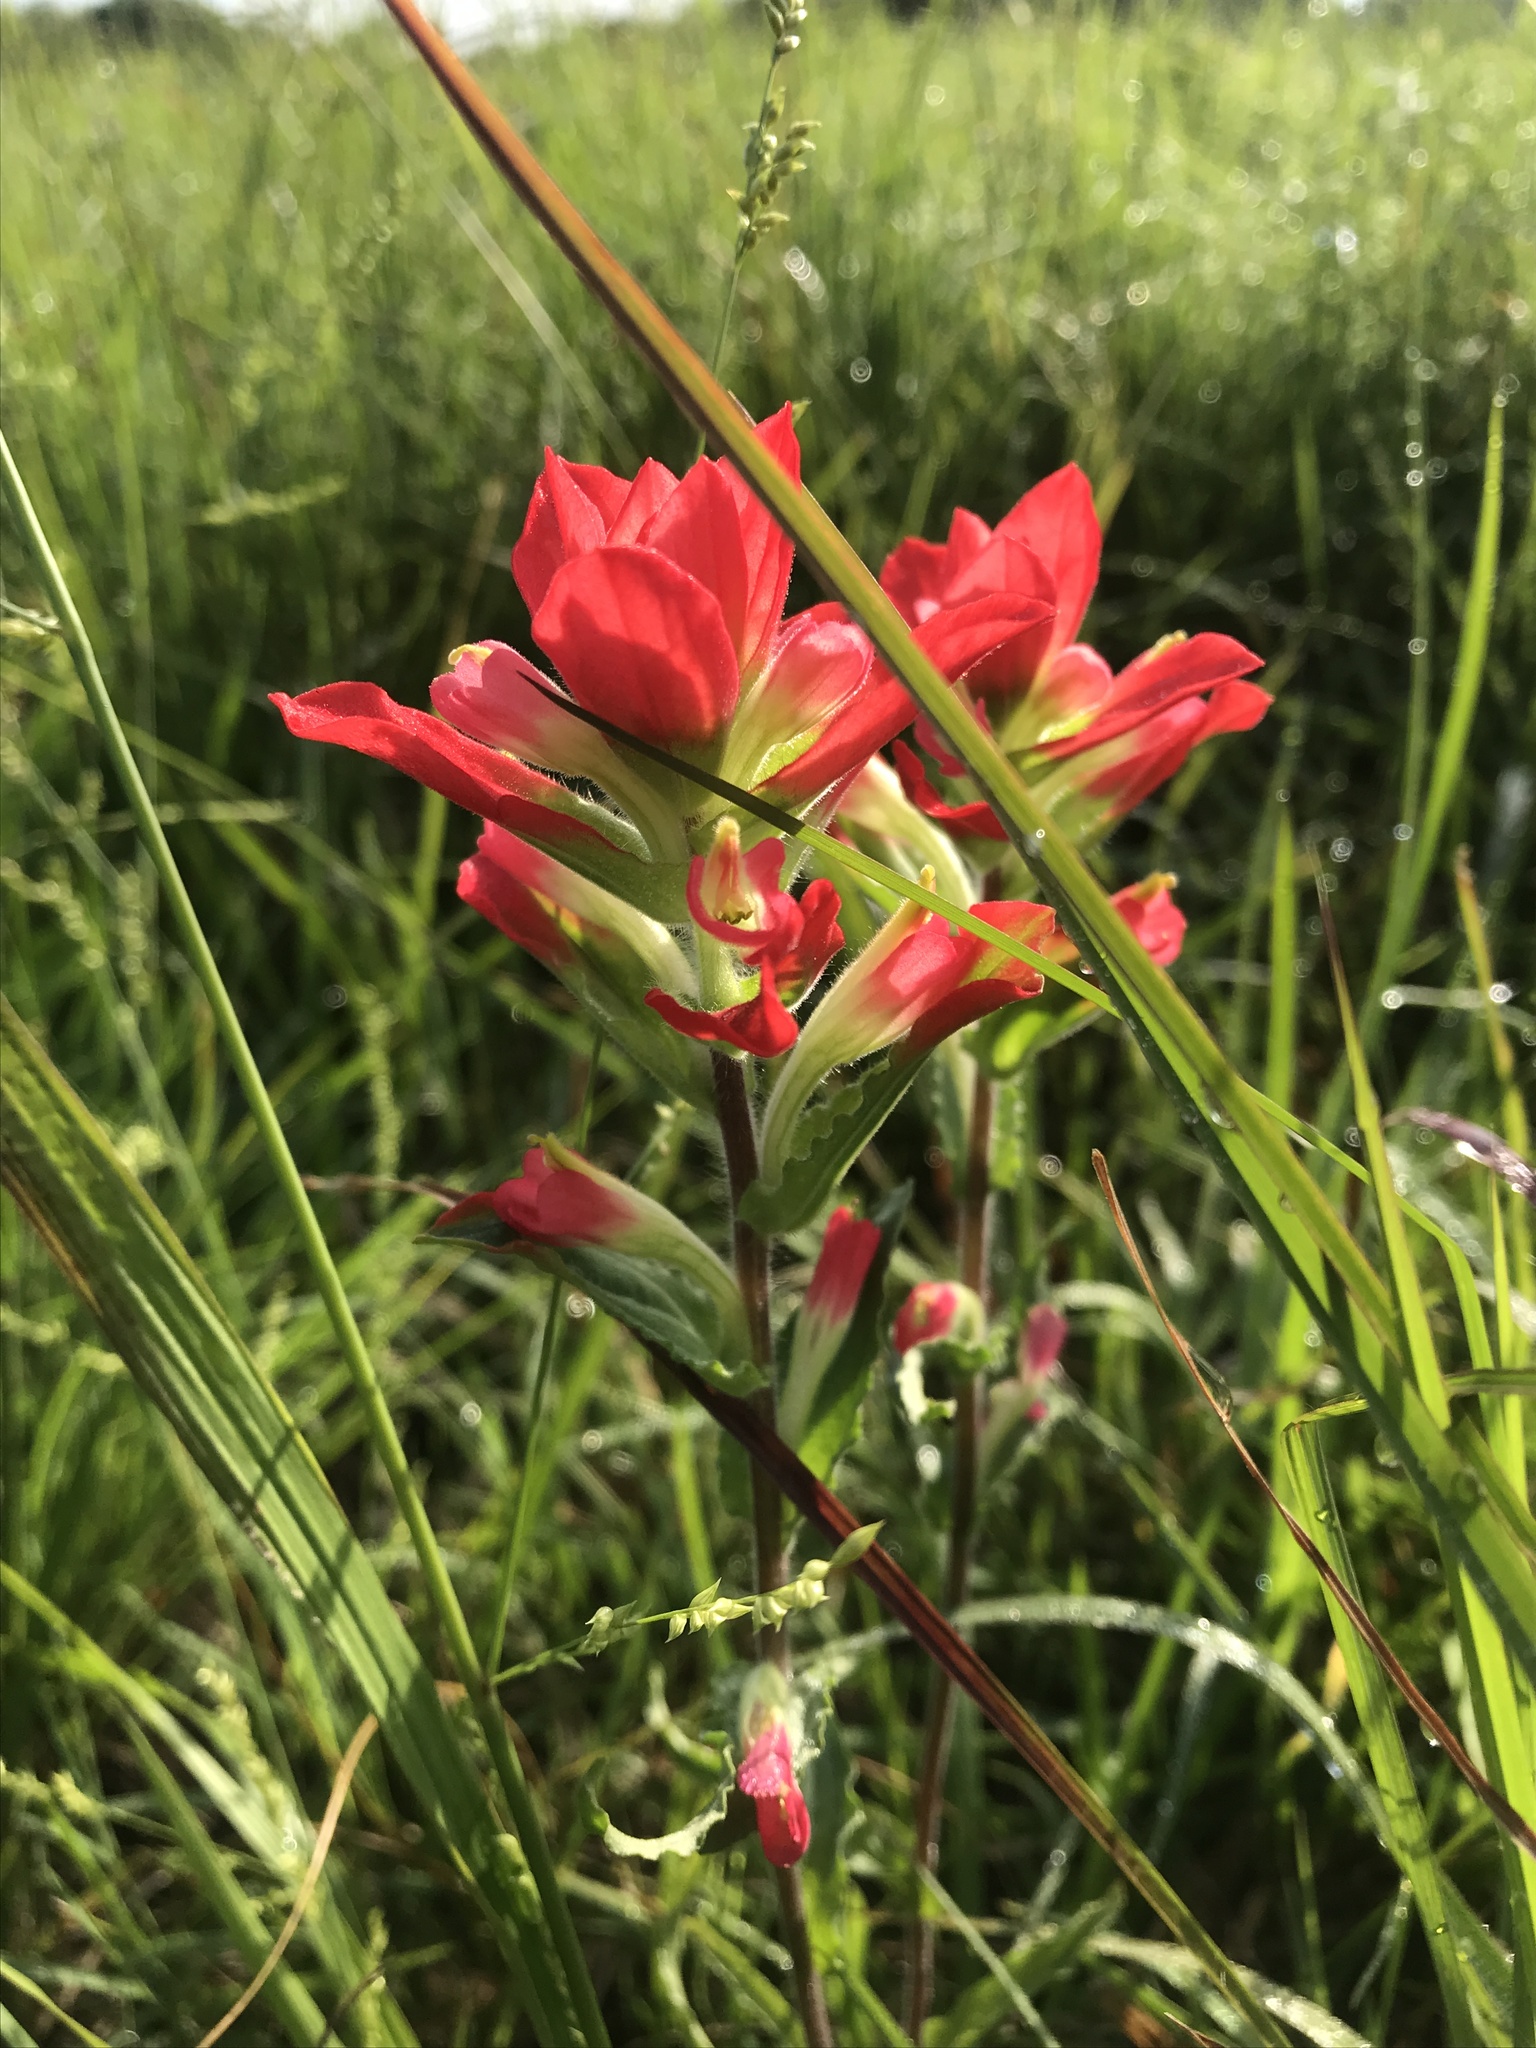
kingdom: Plantae
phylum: Tracheophyta
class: Magnoliopsida
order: Lamiales
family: Orobanchaceae
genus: Castilleja
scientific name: Castilleja indivisa
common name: Texas paintbrush
